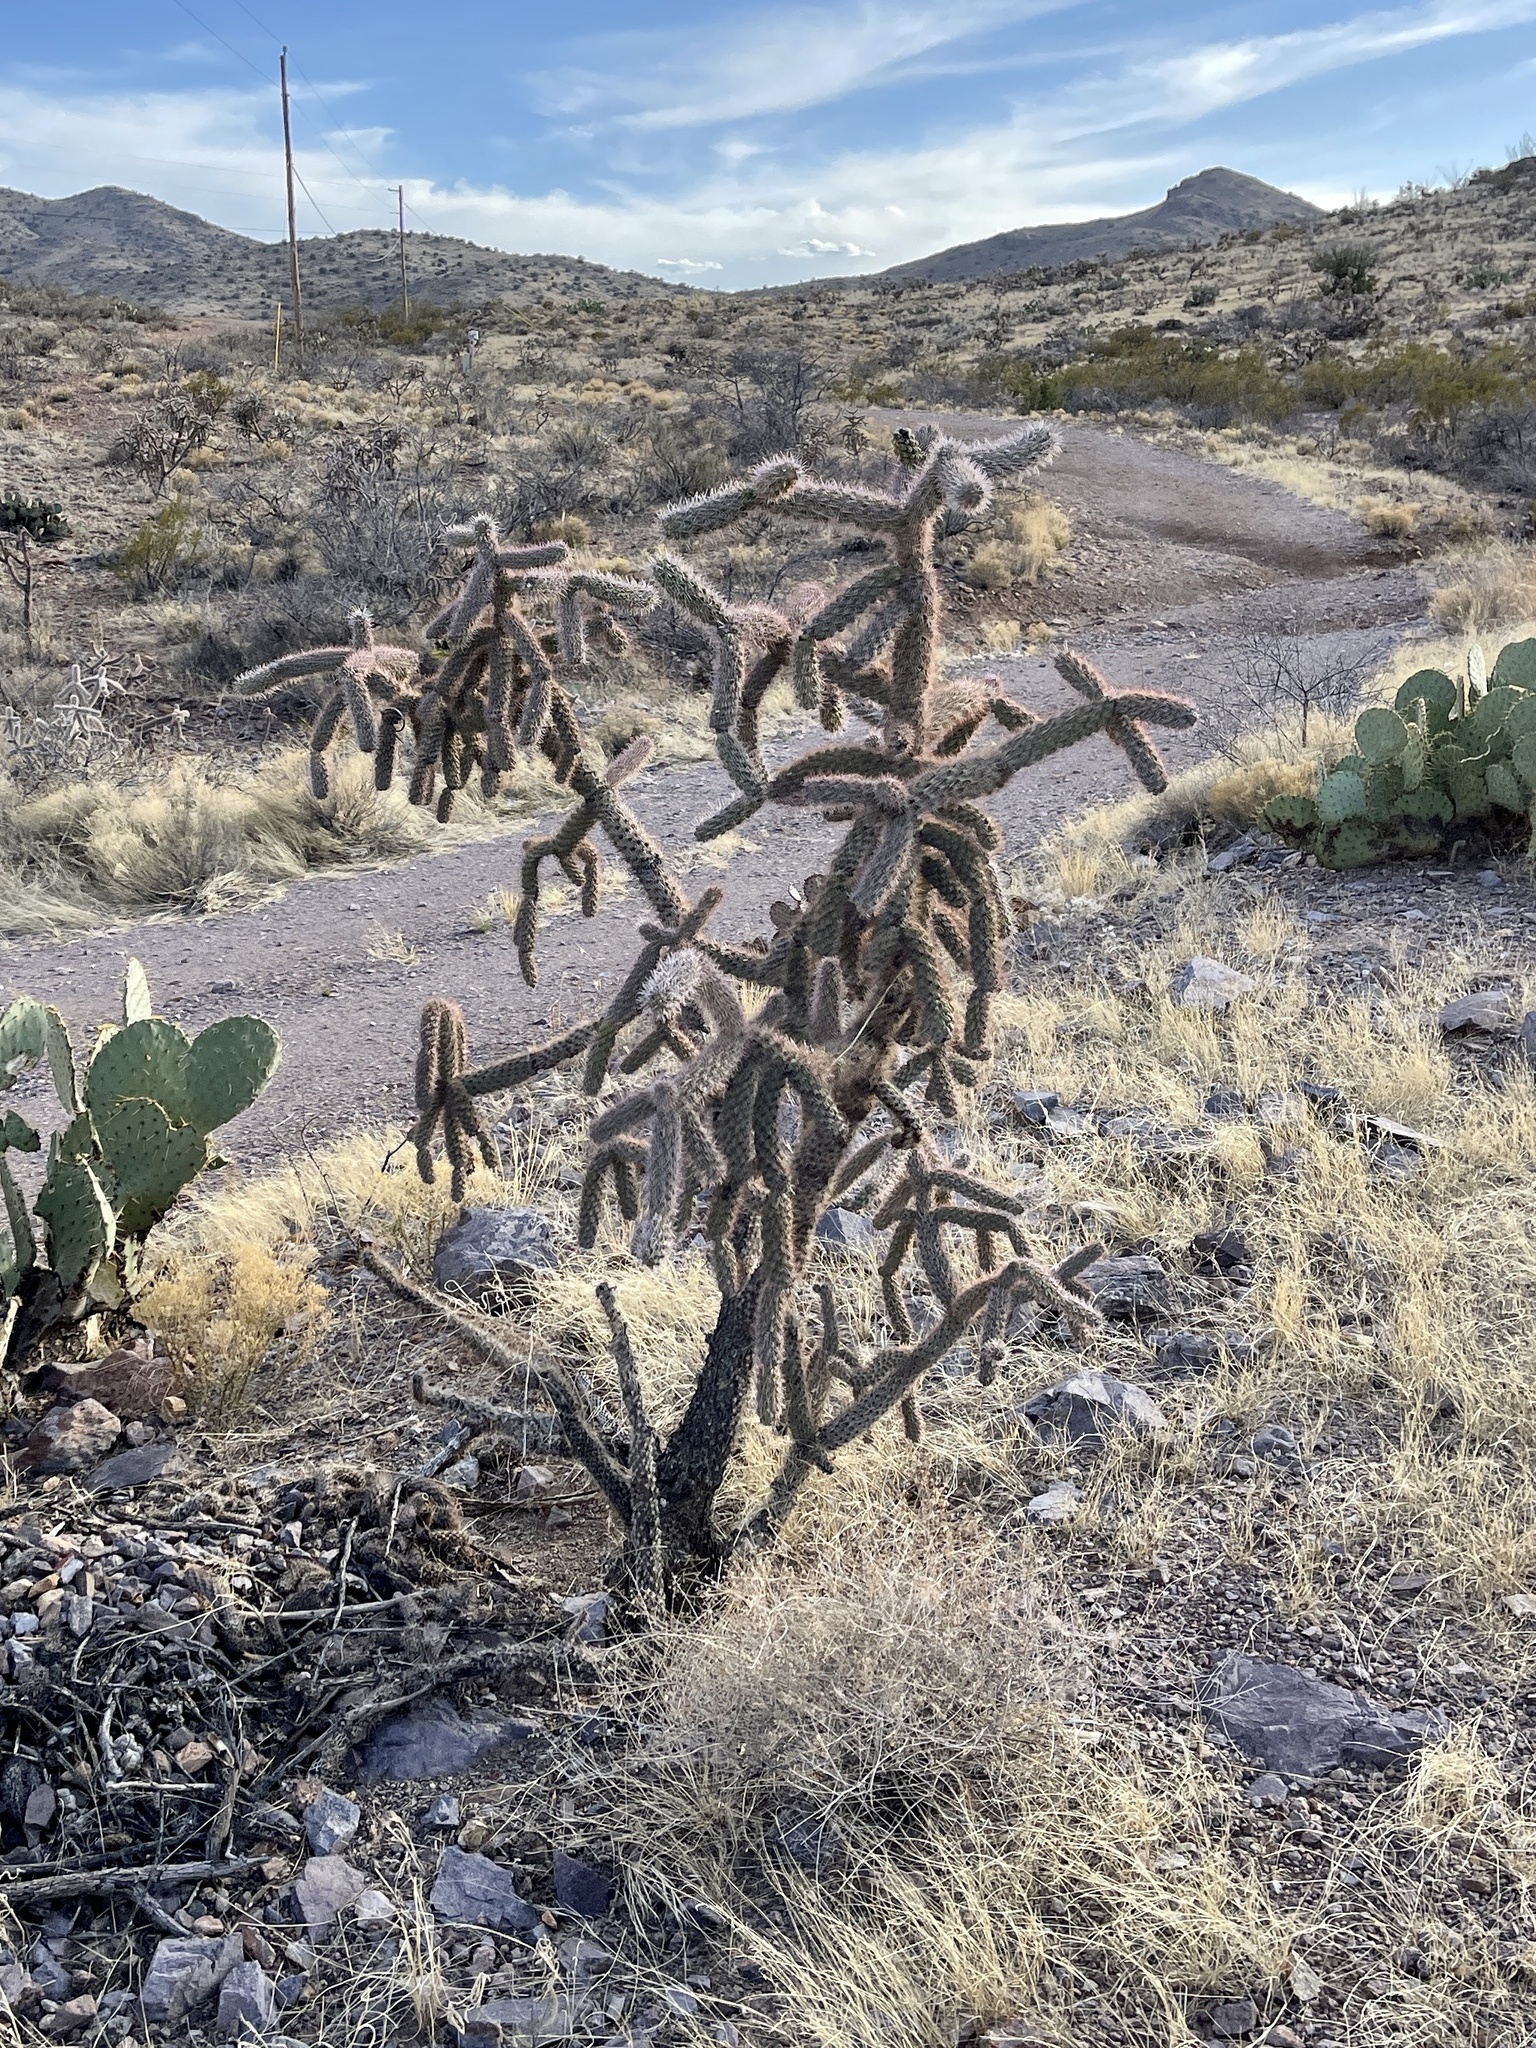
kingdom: Plantae
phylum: Tracheophyta
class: Magnoliopsida
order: Caryophyllales
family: Cactaceae
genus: Cylindropuntia
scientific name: Cylindropuntia imbricata
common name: Candelabrum cactus
